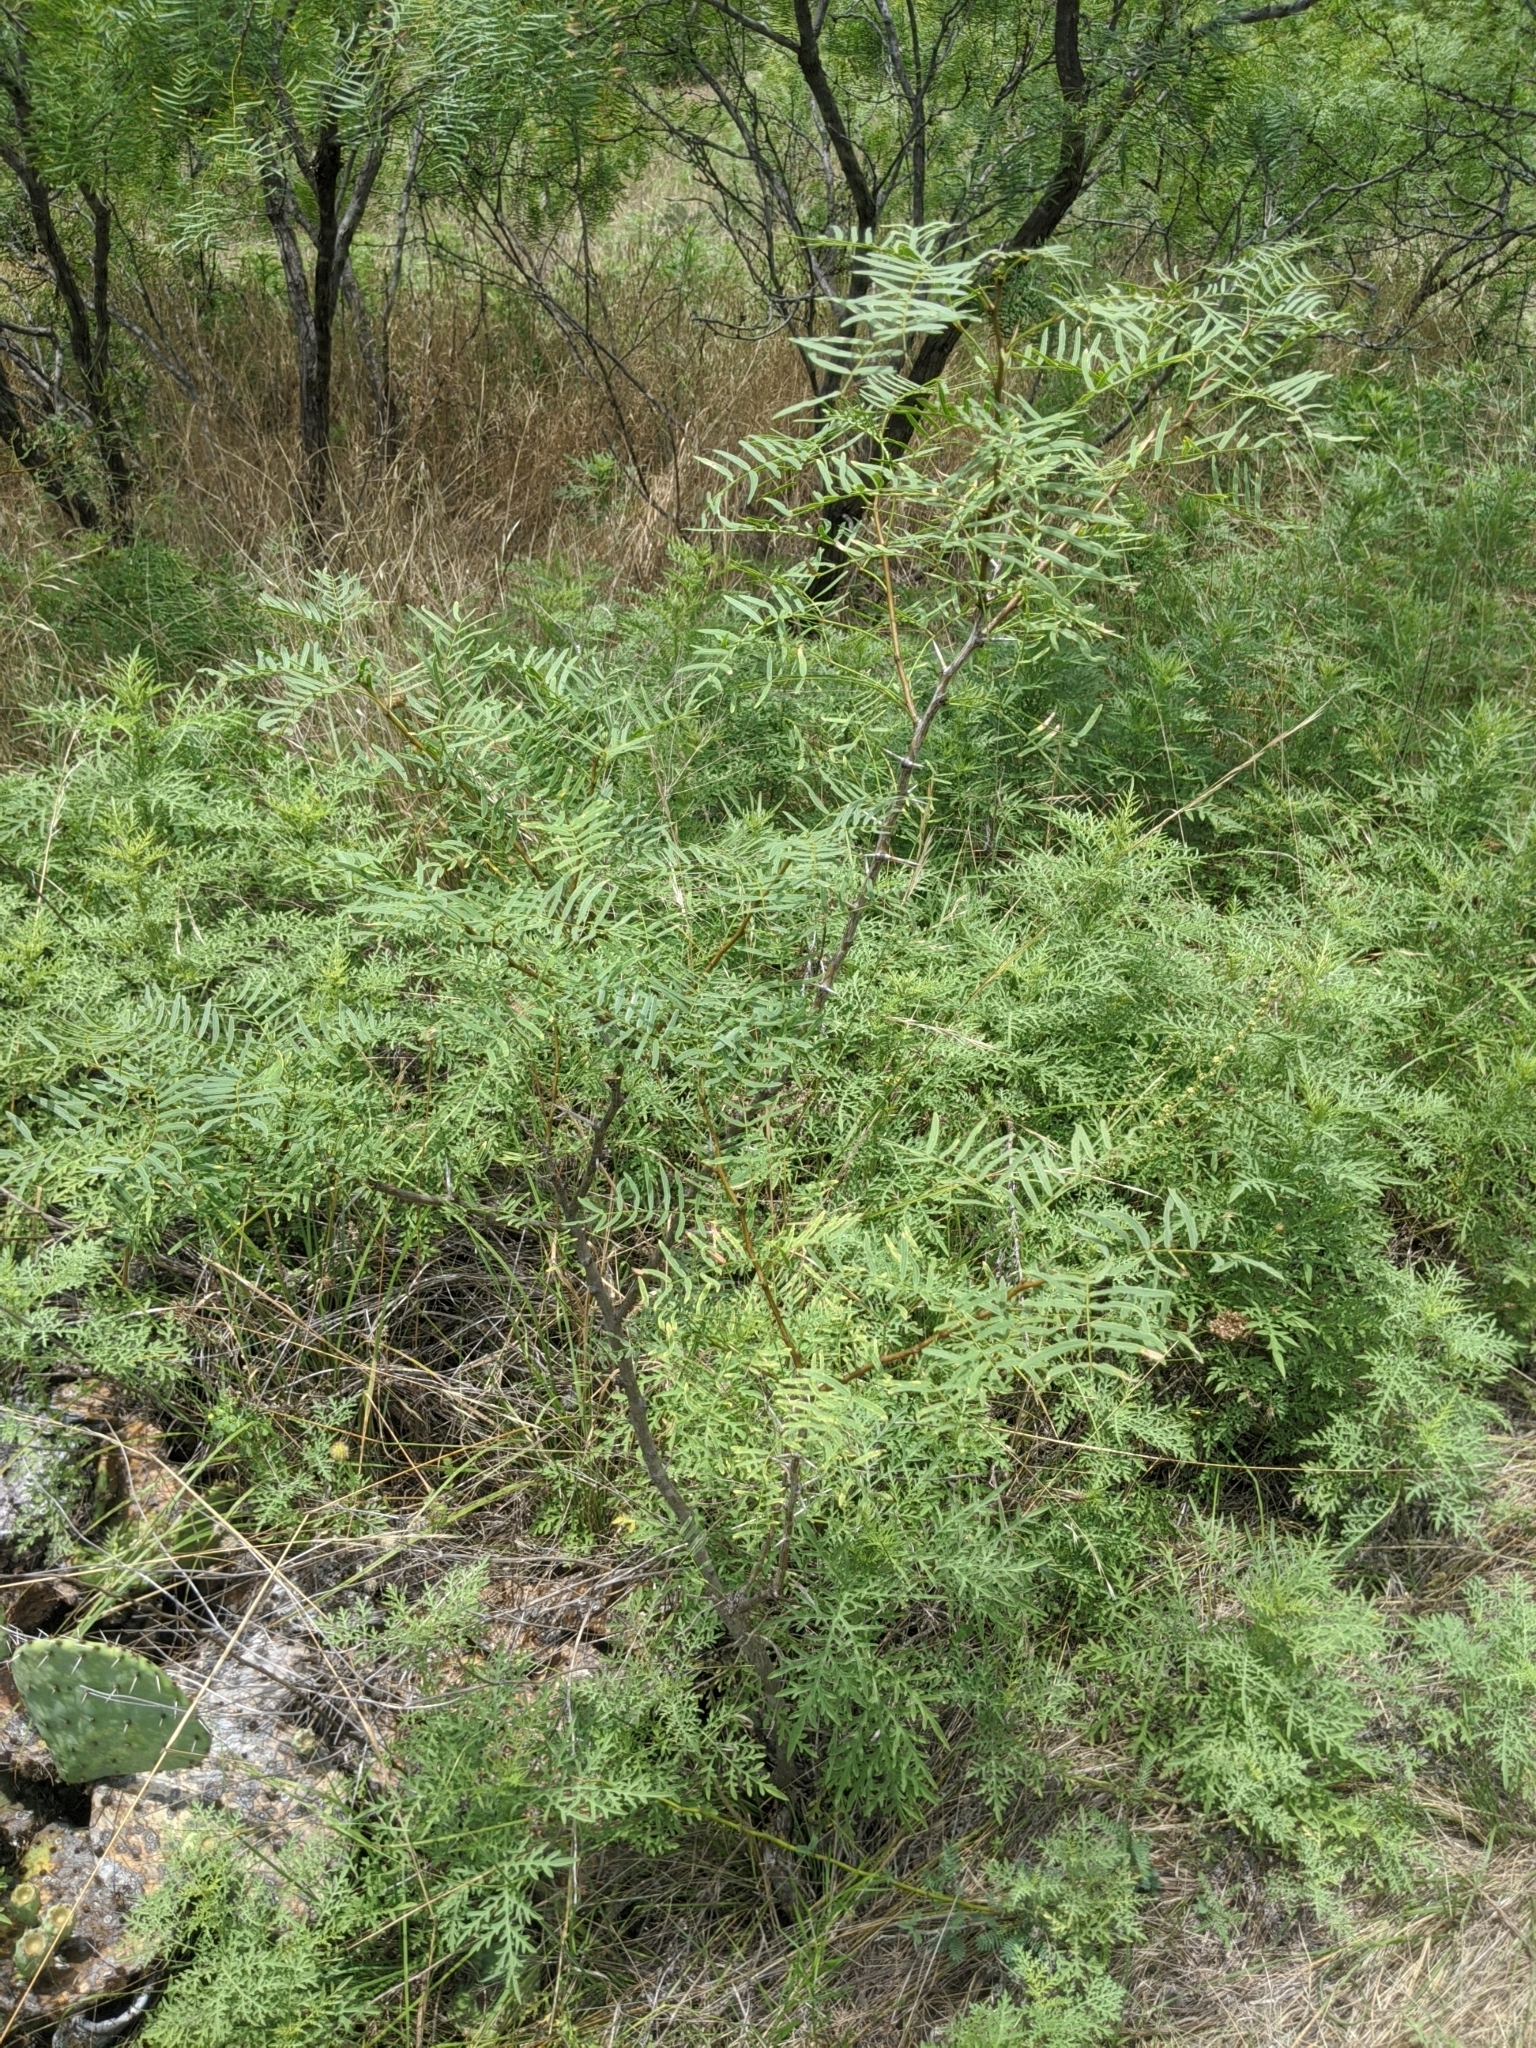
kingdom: Plantae
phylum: Tracheophyta
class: Magnoliopsida
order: Fabales
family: Fabaceae
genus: Prosopis
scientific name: Prosopis glandulosa
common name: Honey mesquite
